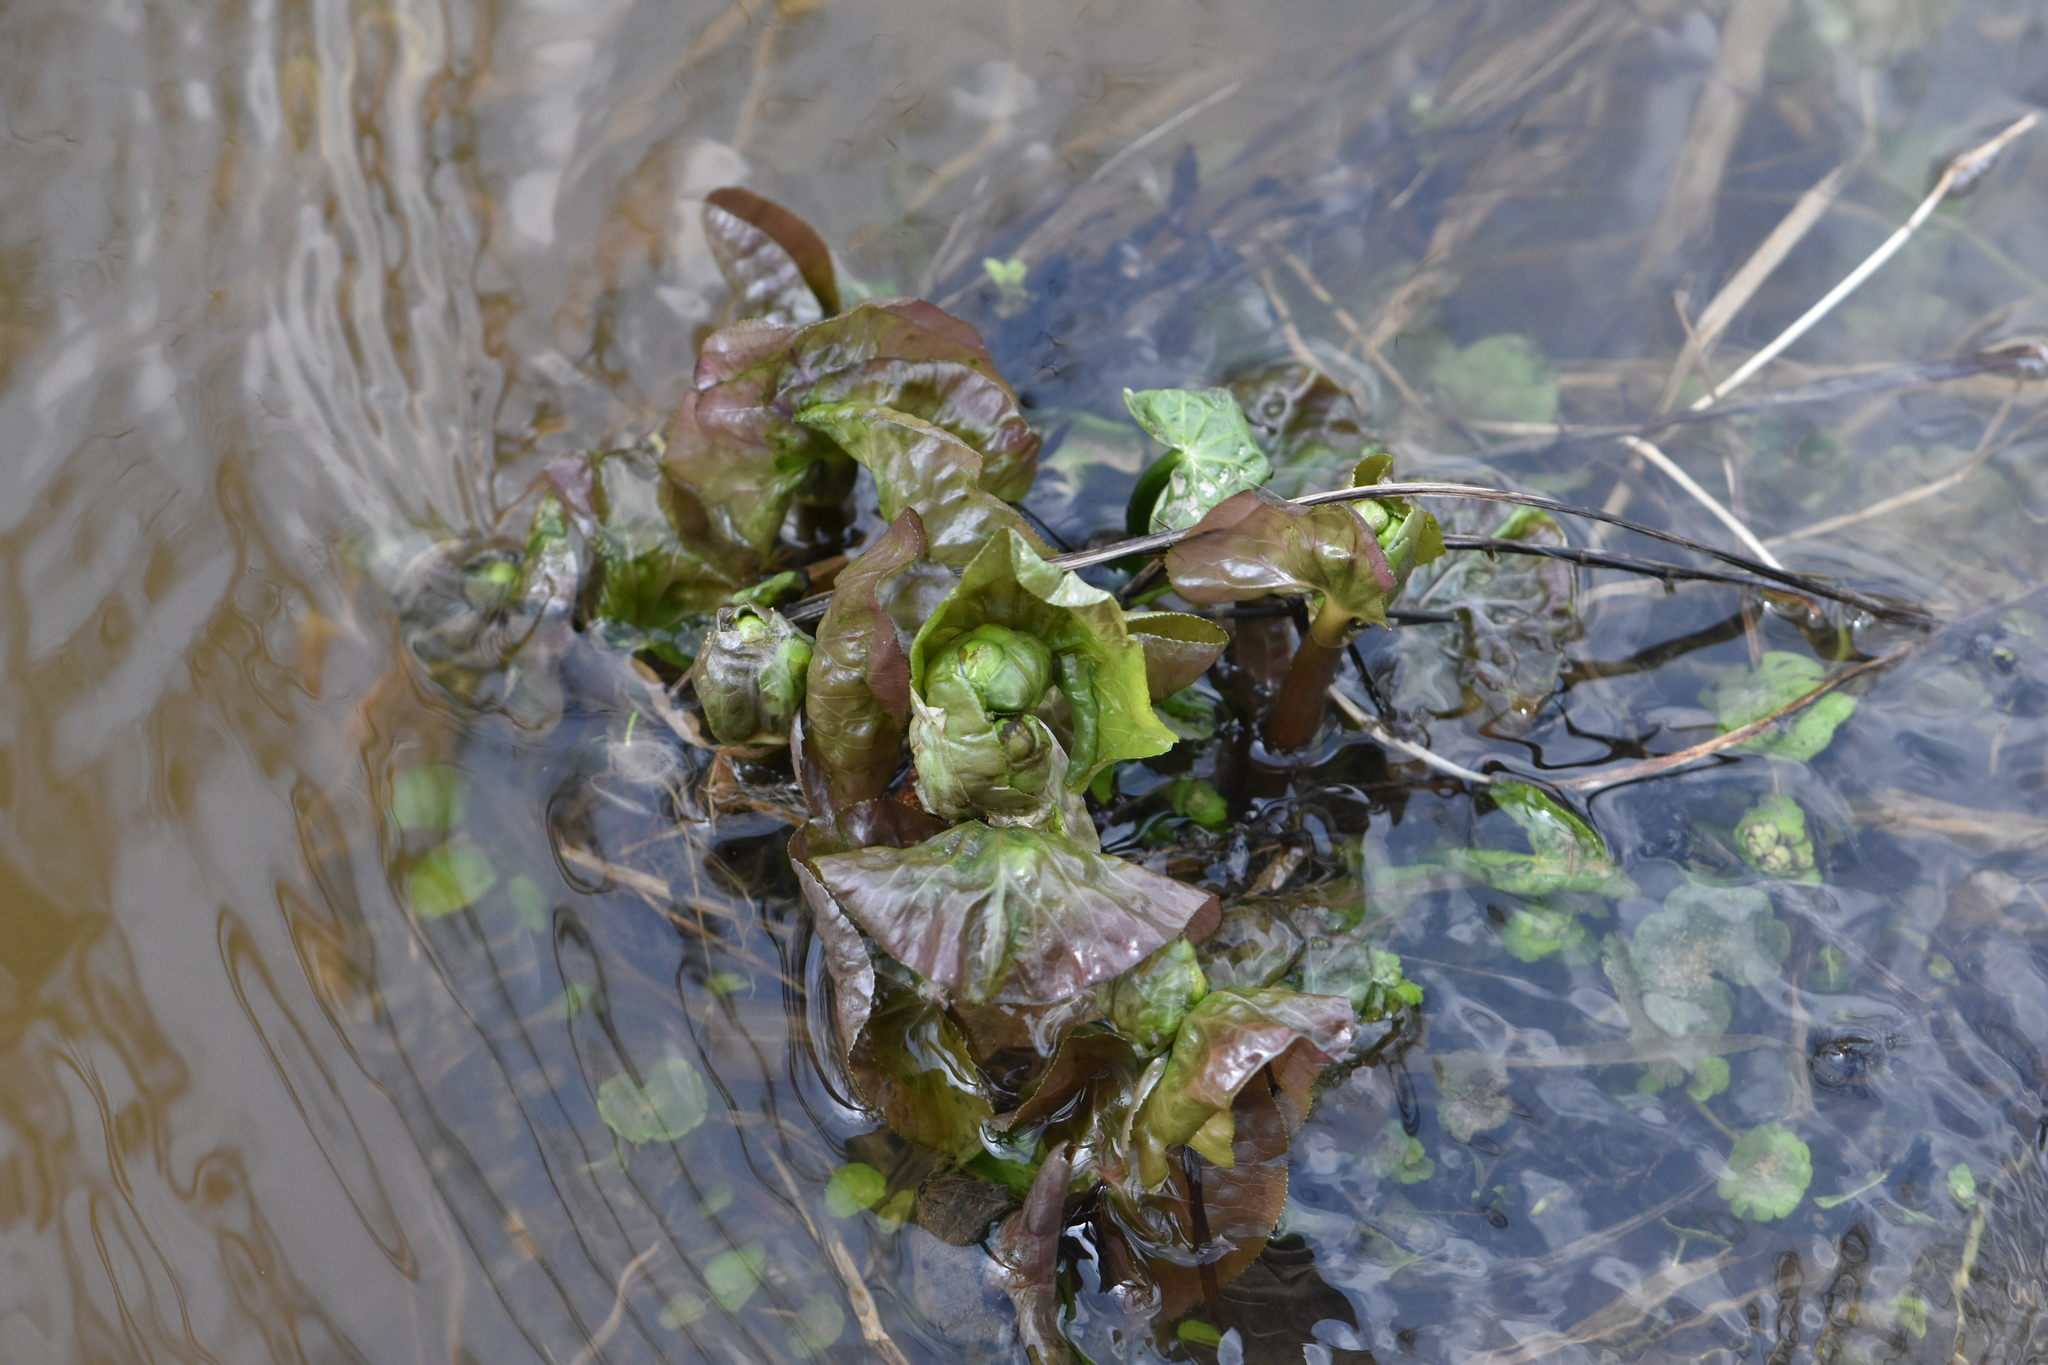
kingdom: Plantae
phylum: Tracheophyta
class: Magnoliopsida
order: Ranunculales
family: Ranunculaceae
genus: Caltha
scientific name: Caltha palustris
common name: Marsh marigold
